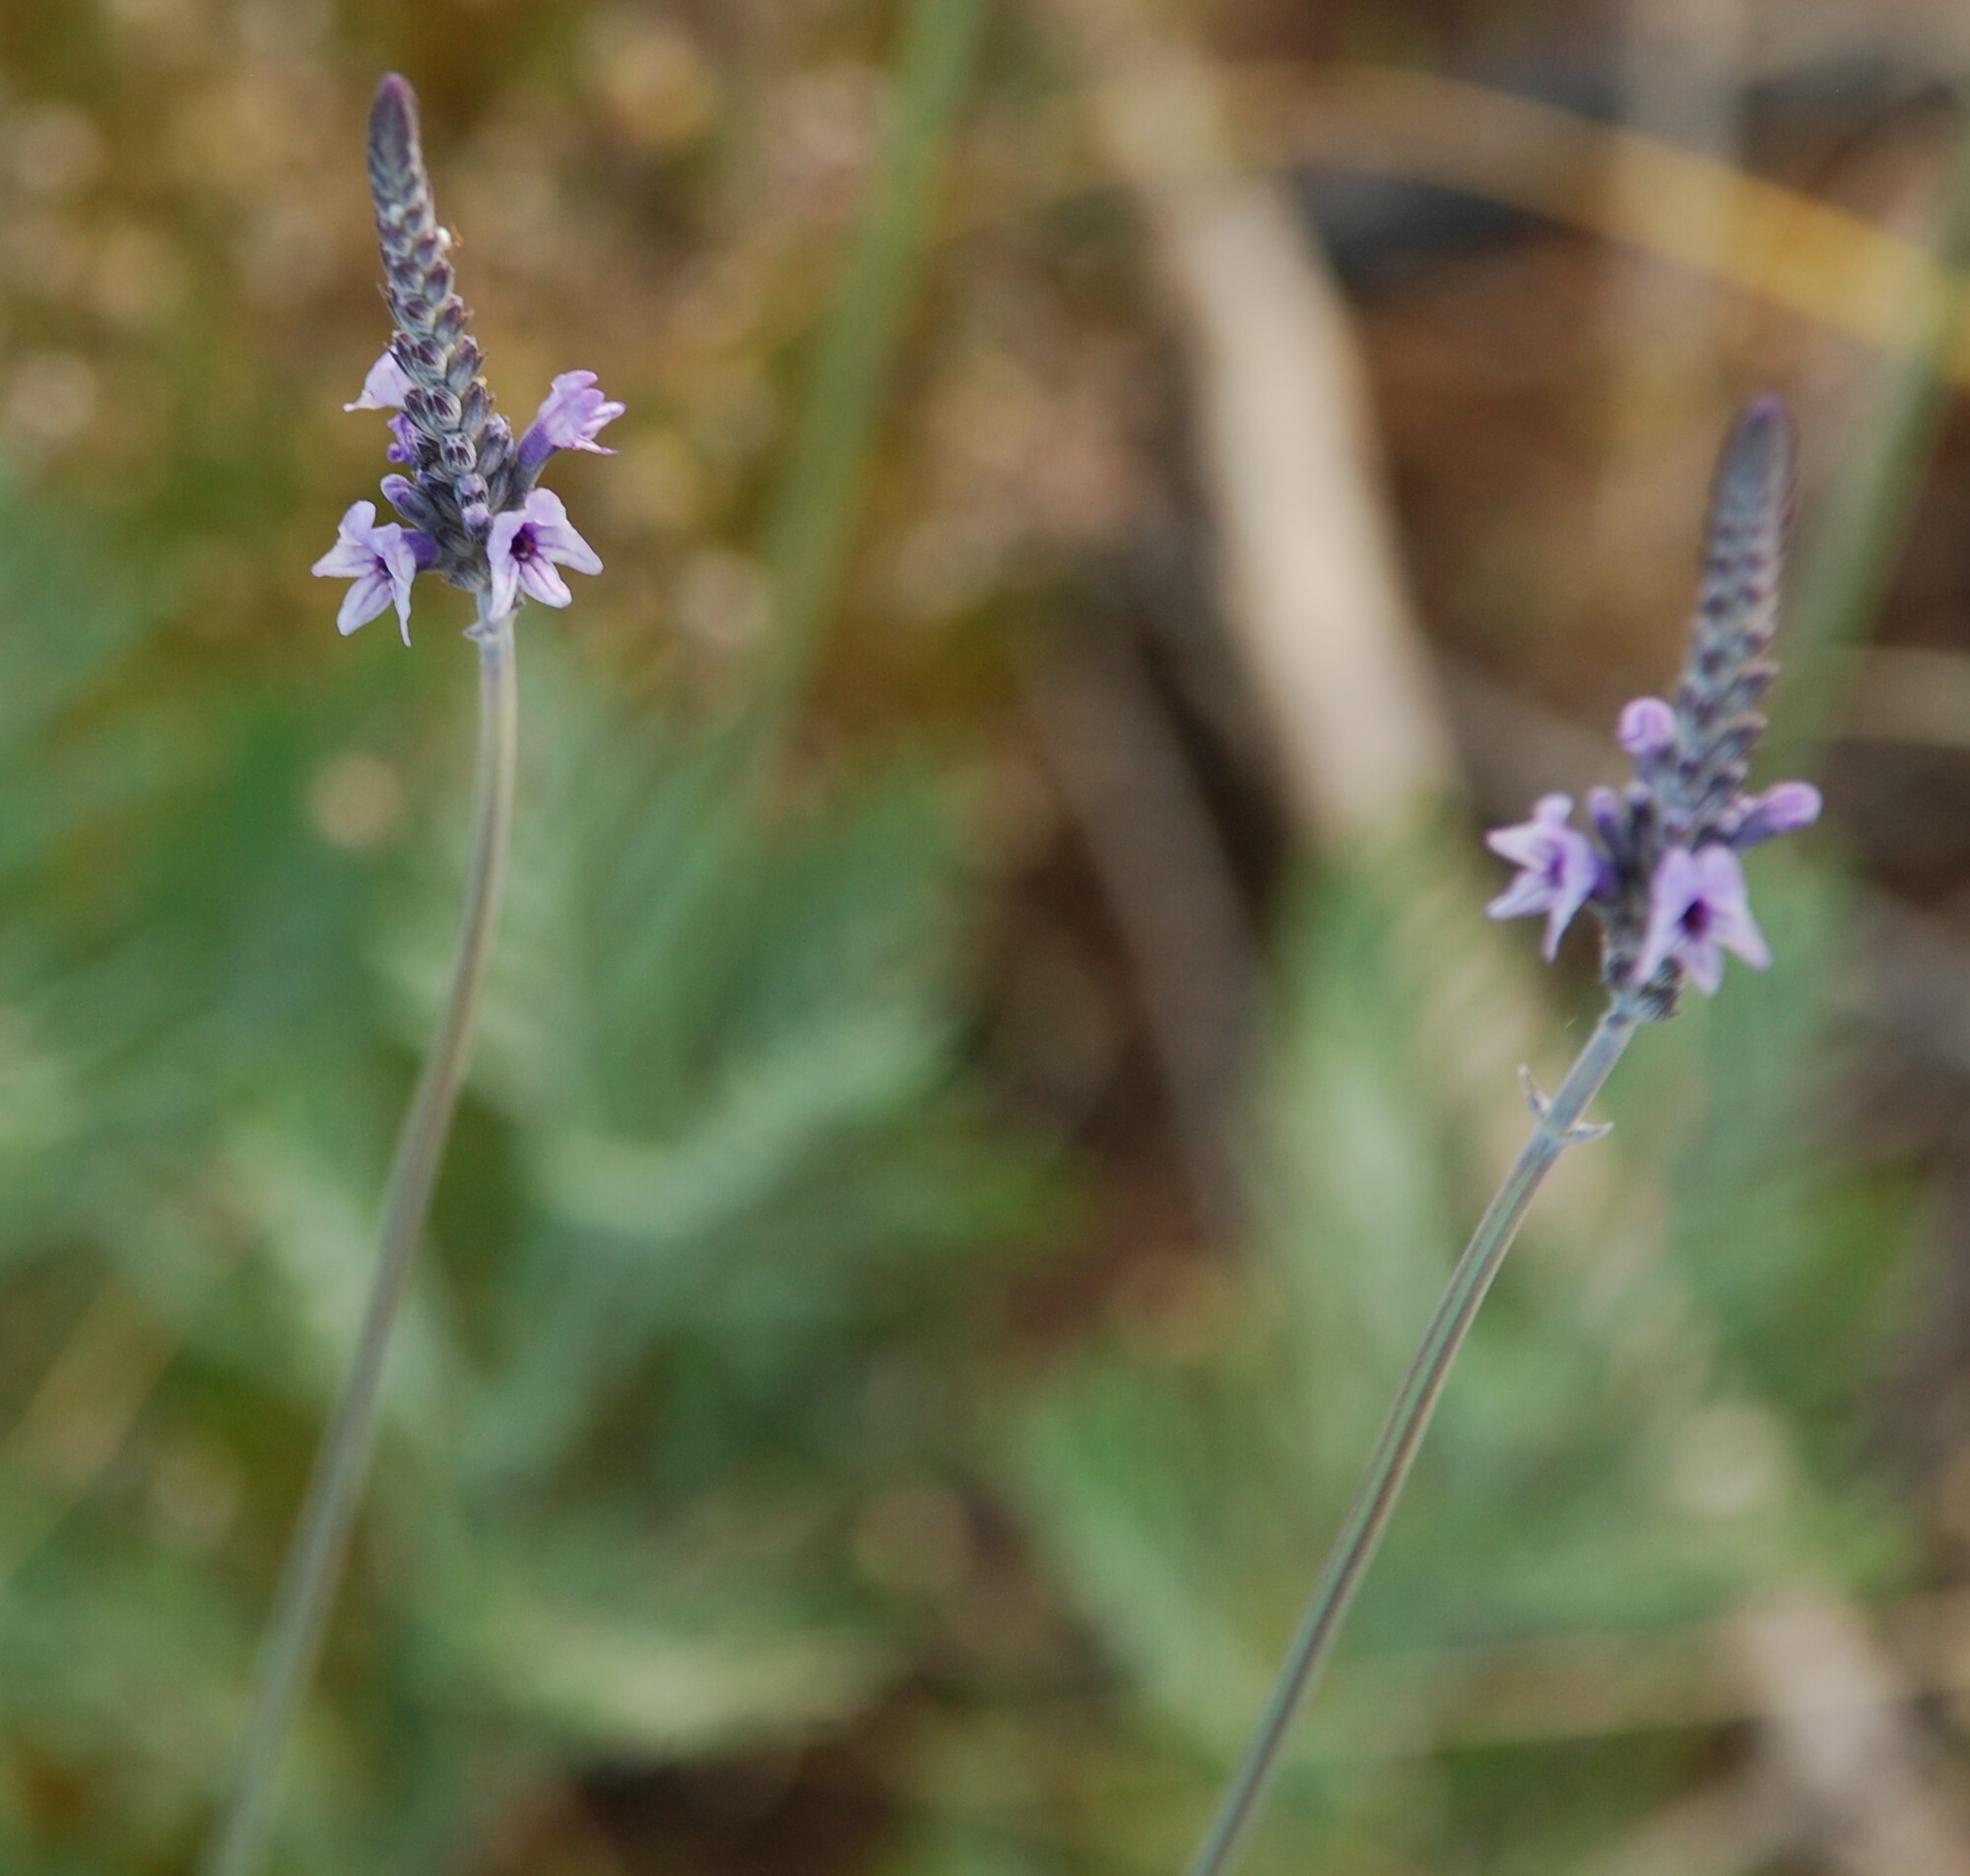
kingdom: Plantae
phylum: Tracheophyta
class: Magnoliopsida
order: Lamiales
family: Lamiaceae
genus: Lavandula
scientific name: Lavandula buchii
